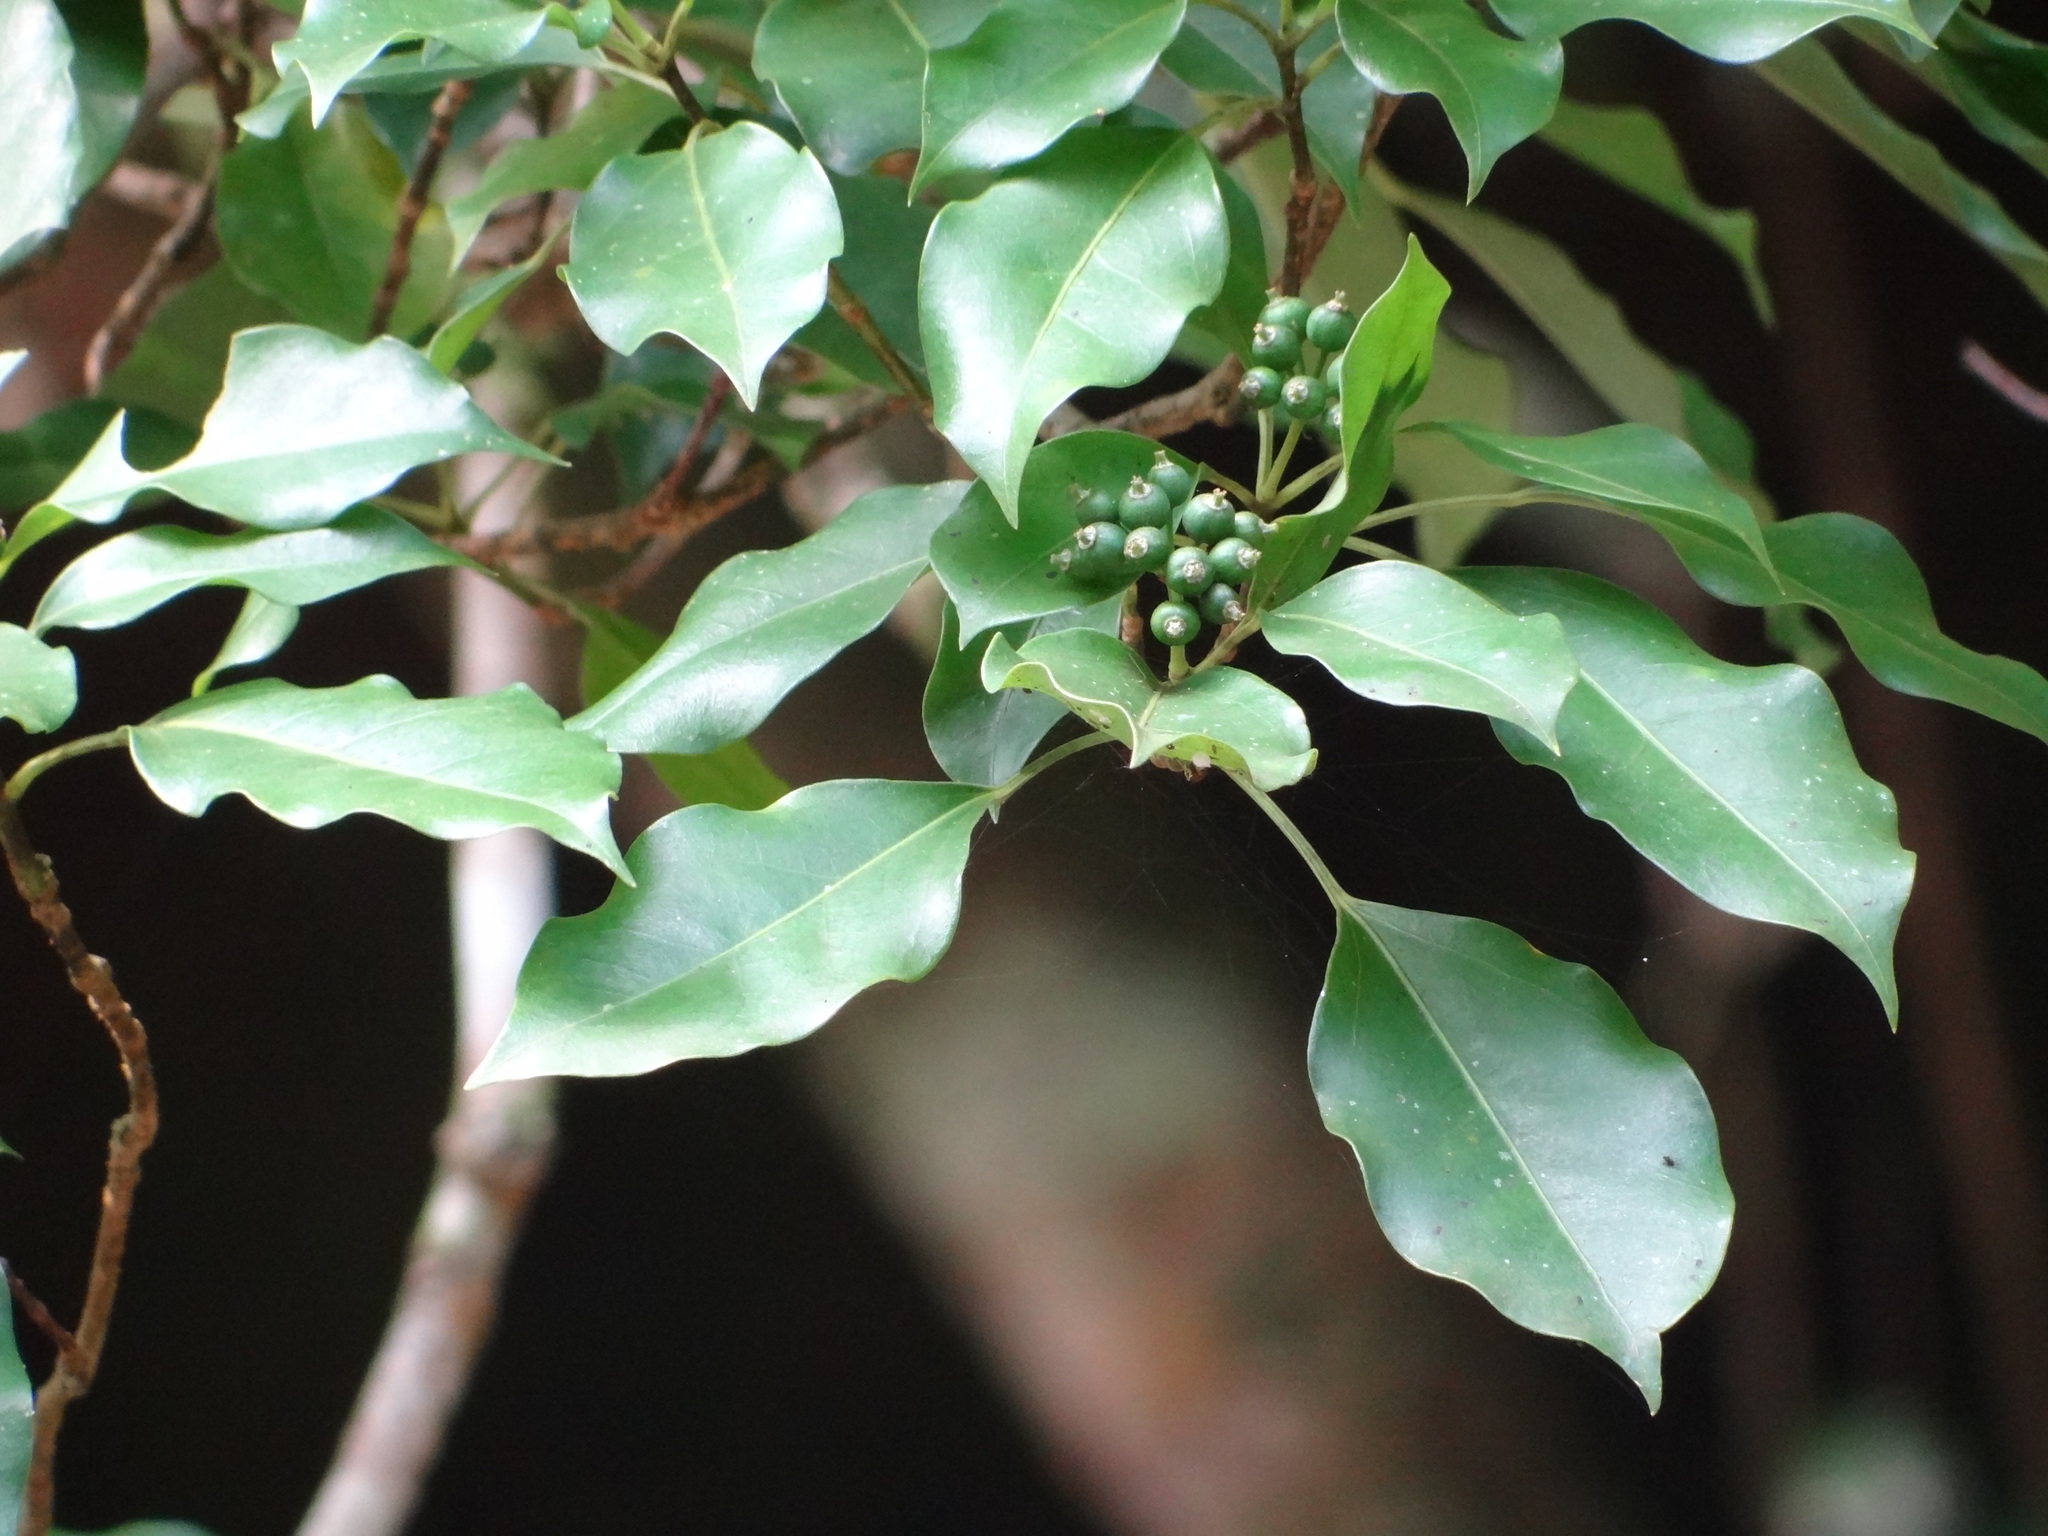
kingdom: Plantae
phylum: Tracheophyta
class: Magnoliopsida
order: Apiales
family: Araliaceae
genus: Dendropanax
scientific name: Dendropanax dentiger
